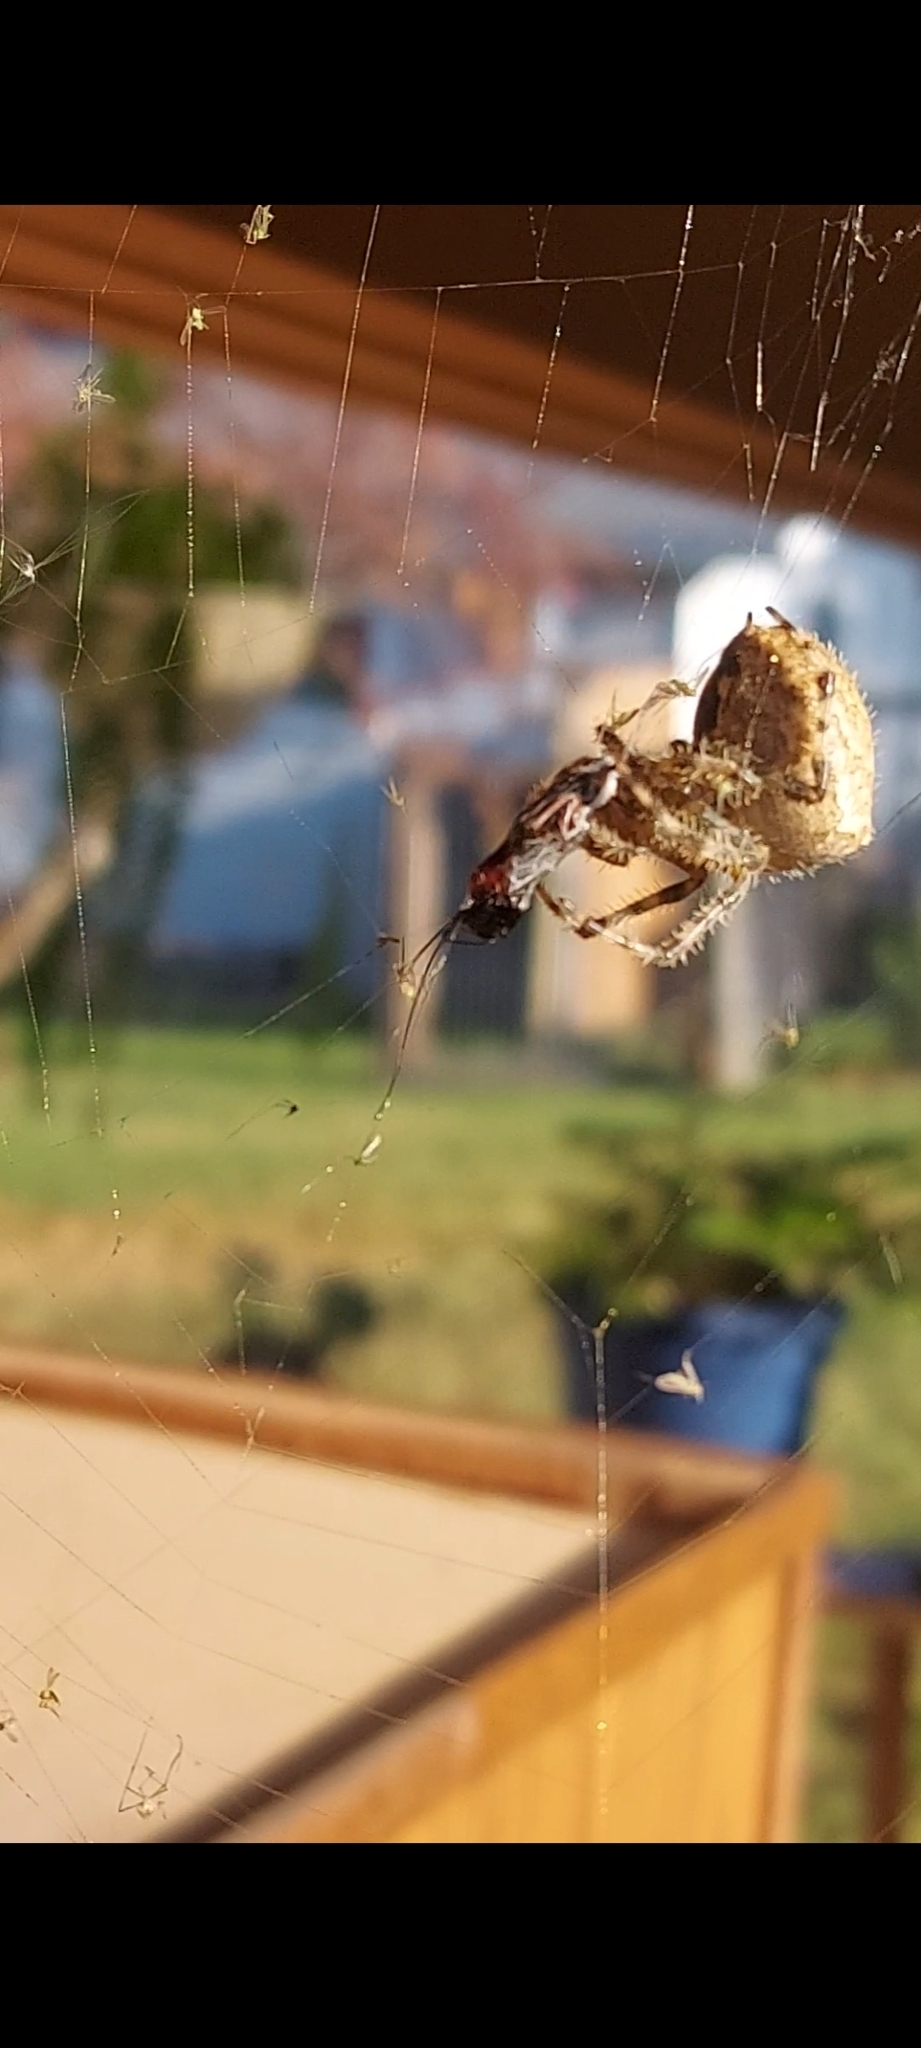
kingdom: Animalia
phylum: Arthropoda
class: Arachnida
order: Araneae
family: Araneidae
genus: Araneus
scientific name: Araneus gemmoides
